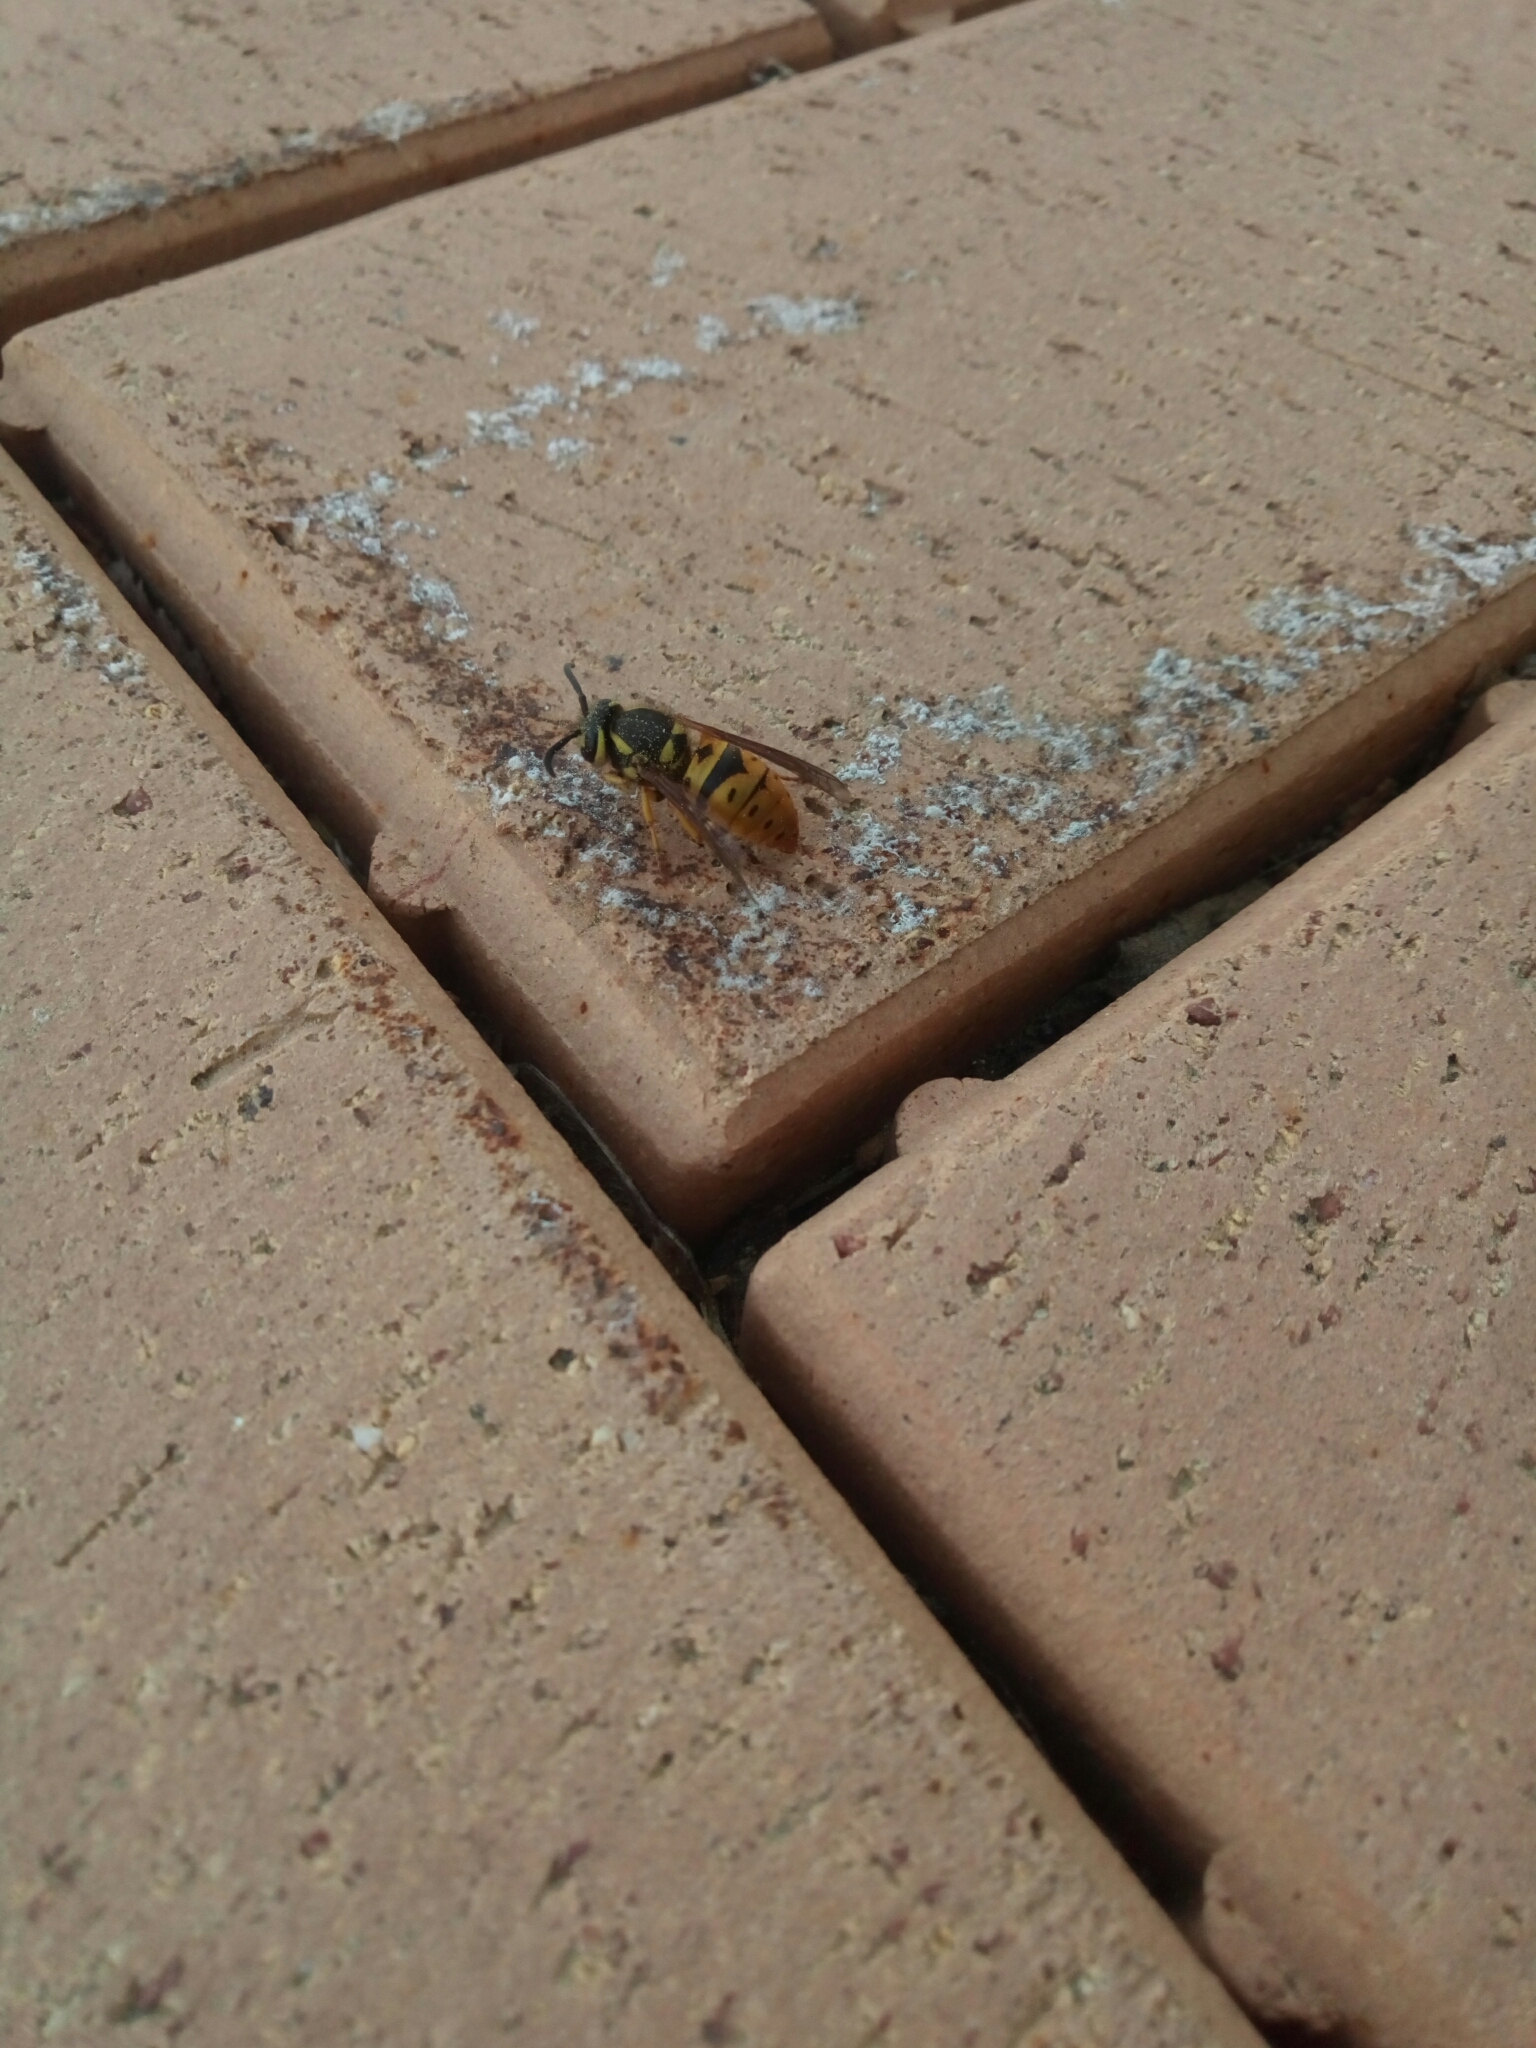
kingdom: Animalia
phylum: Arthropoda
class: Insecta
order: Hymenoptera
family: Vespidae
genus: Vespula
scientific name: Vespula maculifrons
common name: Eastern yellowjacket
